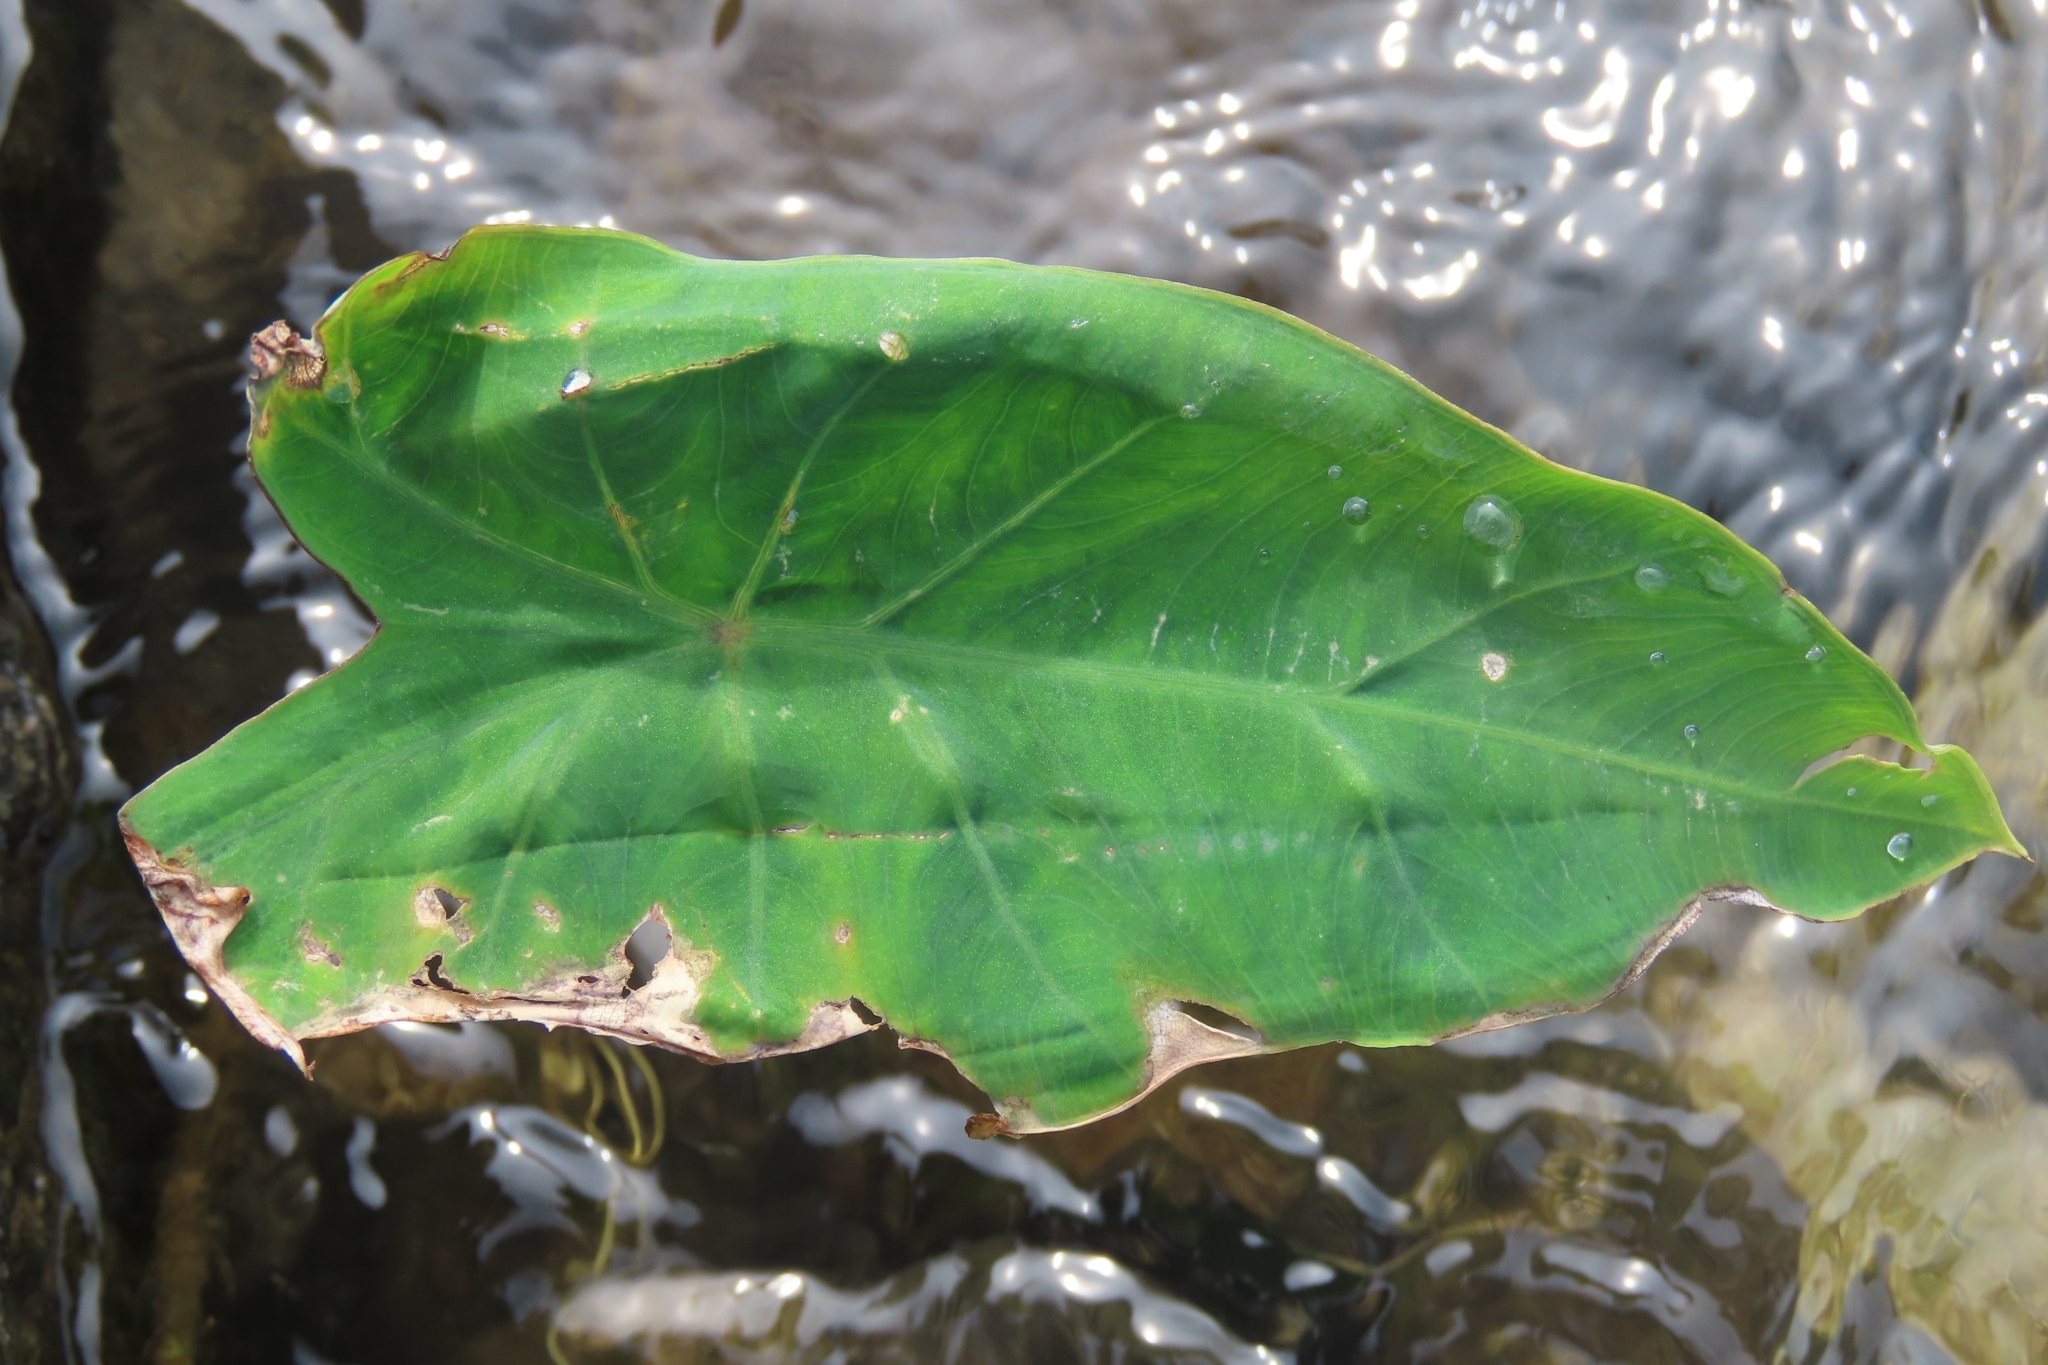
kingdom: Plantae
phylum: Tracheophyta
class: Liliopsida
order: Alismatales
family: Araceae
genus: Colocasia
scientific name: Colocasia esculenta
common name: Taro
